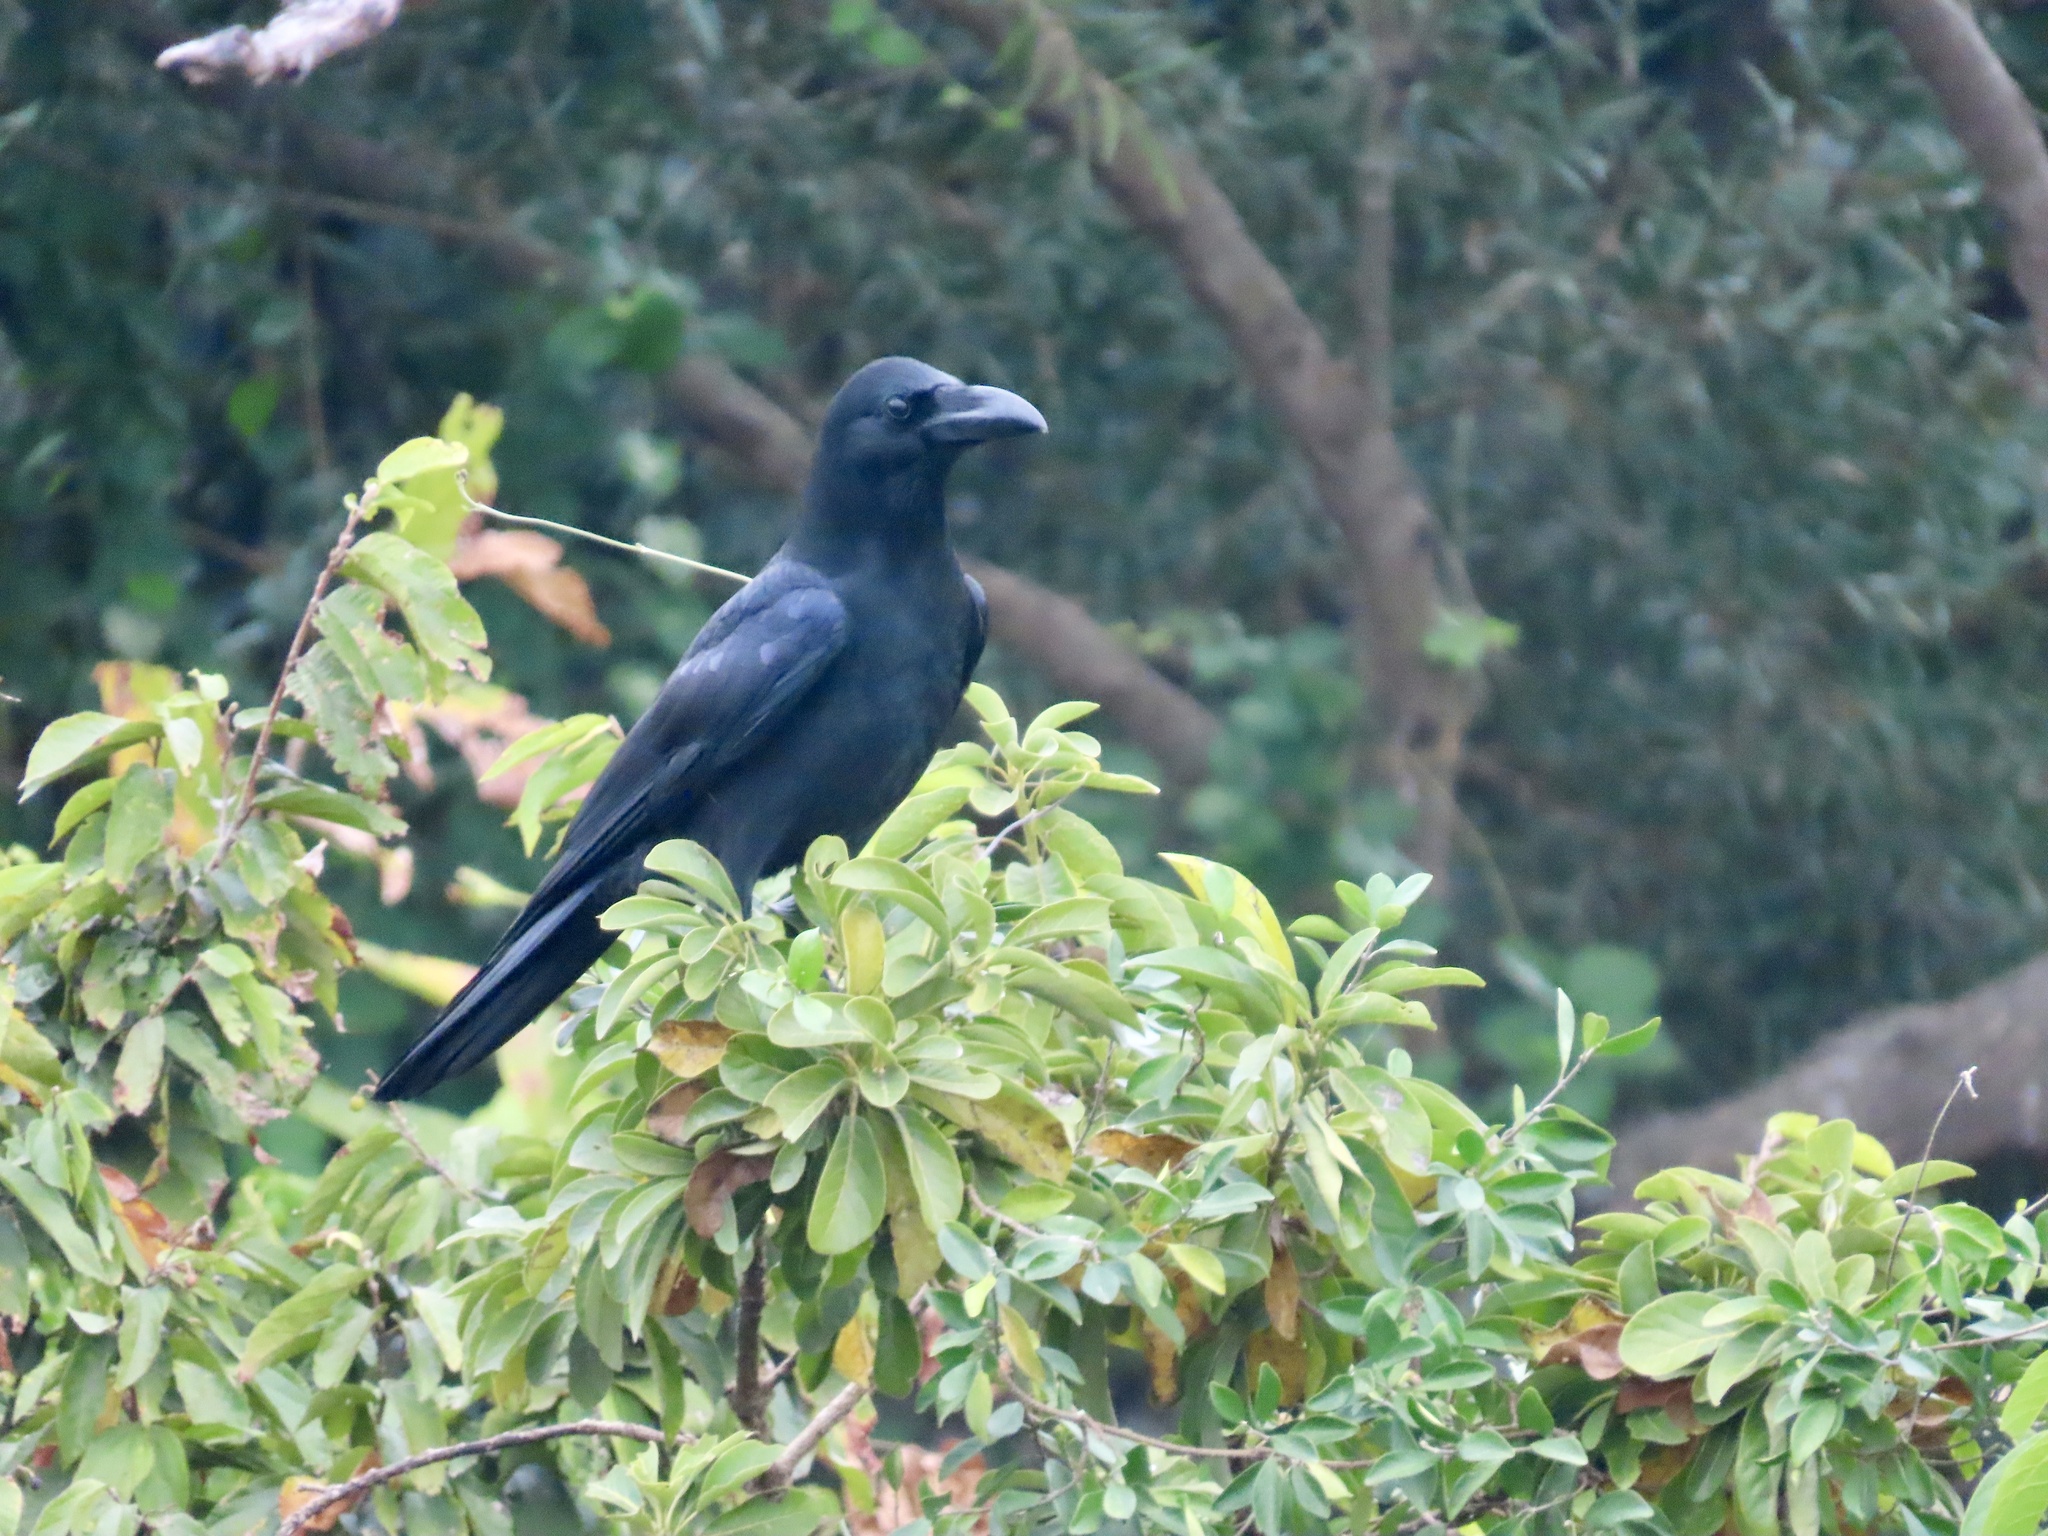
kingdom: Animalia
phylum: Chordata
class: Aves
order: Passeriformes
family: Corvidae
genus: Corvus
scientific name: Corvus macrorhynchos
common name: Large-billed crow
